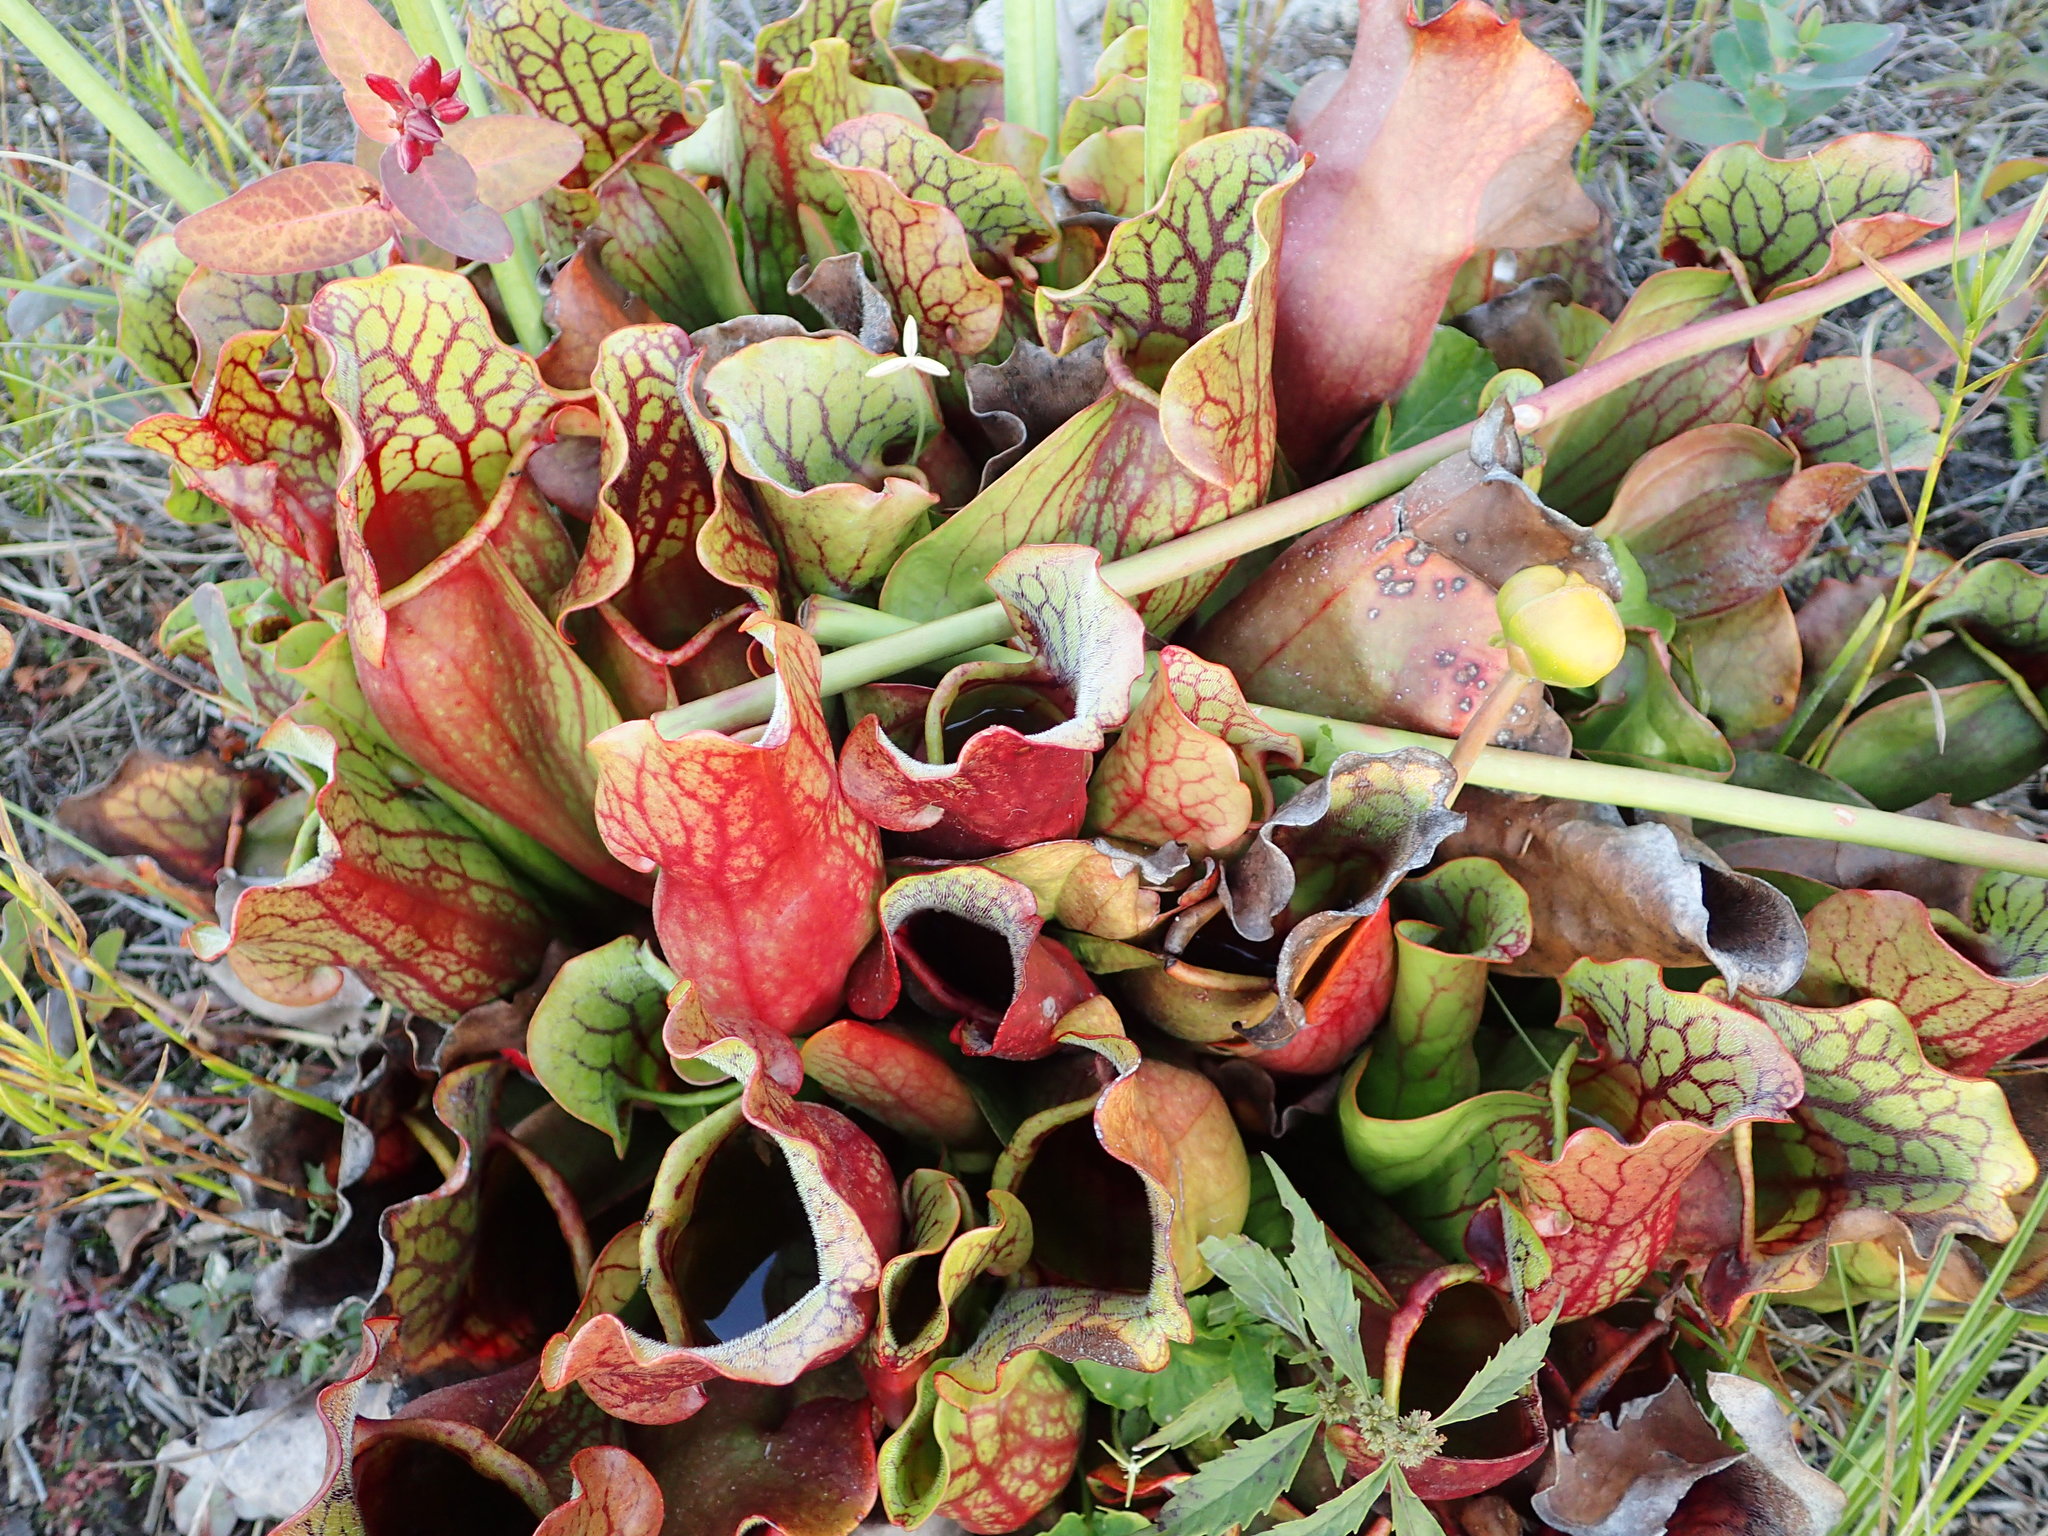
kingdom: Plantae
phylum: Tracheophyta
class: Magnoliopsida
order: Ericales
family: Sarraceniaceae
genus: Sarracenia
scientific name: Sarracenia purpurea
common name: Pitcherplant
